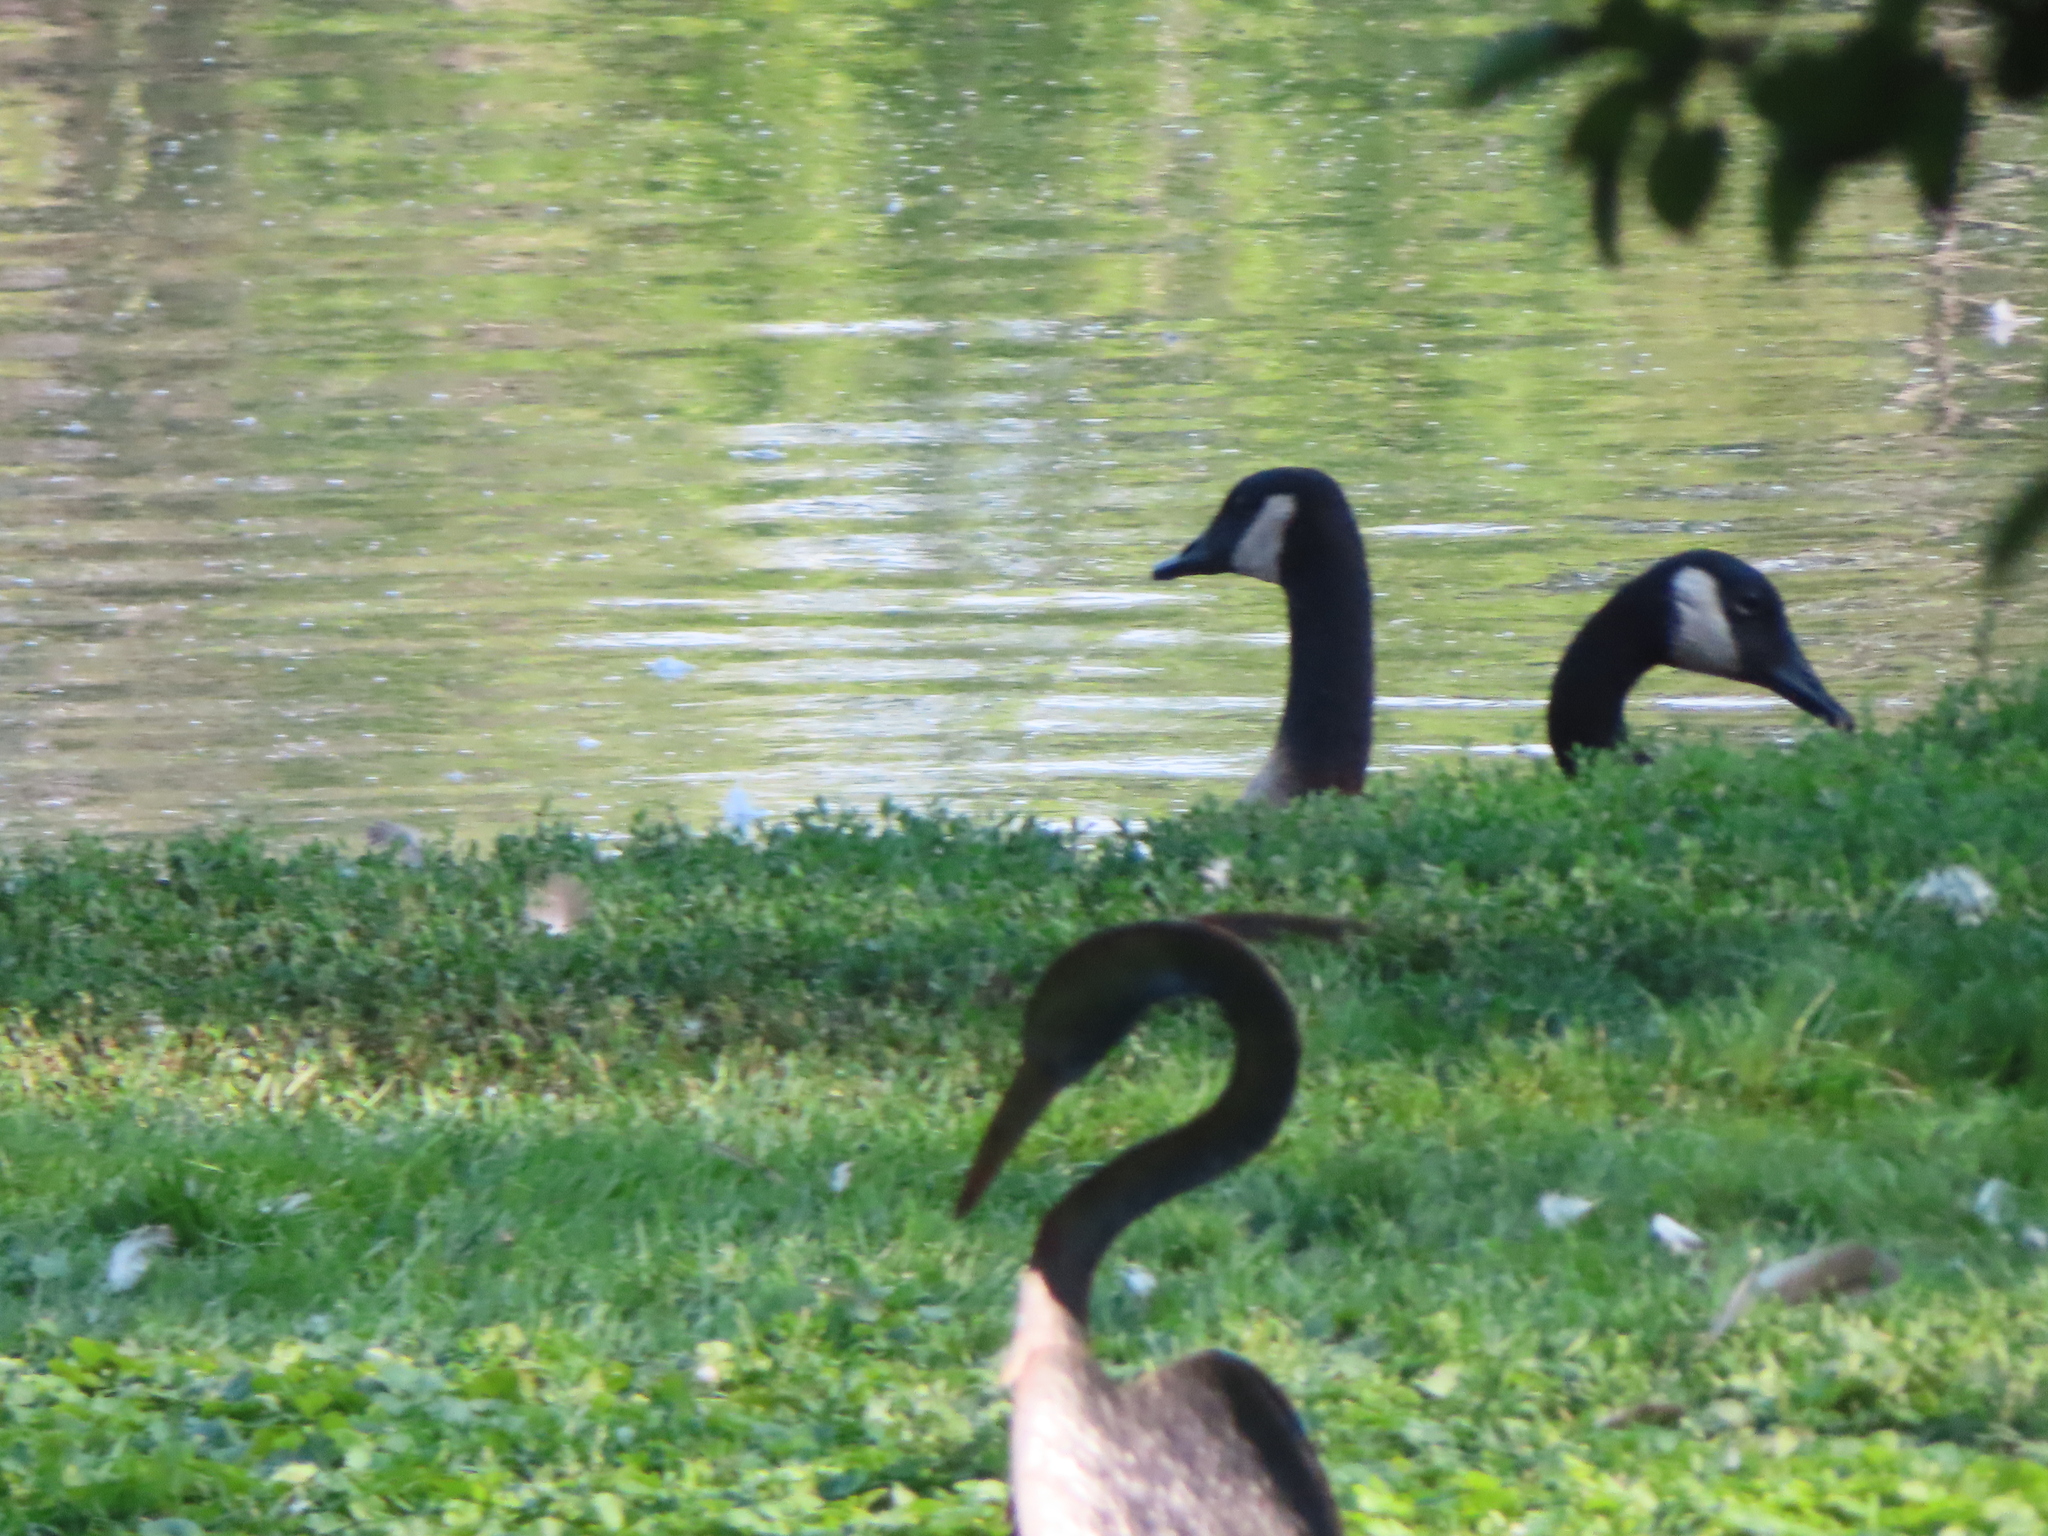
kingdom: Animalia
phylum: Chordata
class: Aves
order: Anseriformes
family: Anatidae
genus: Branta
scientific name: Branta canadensis
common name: Canada goose
